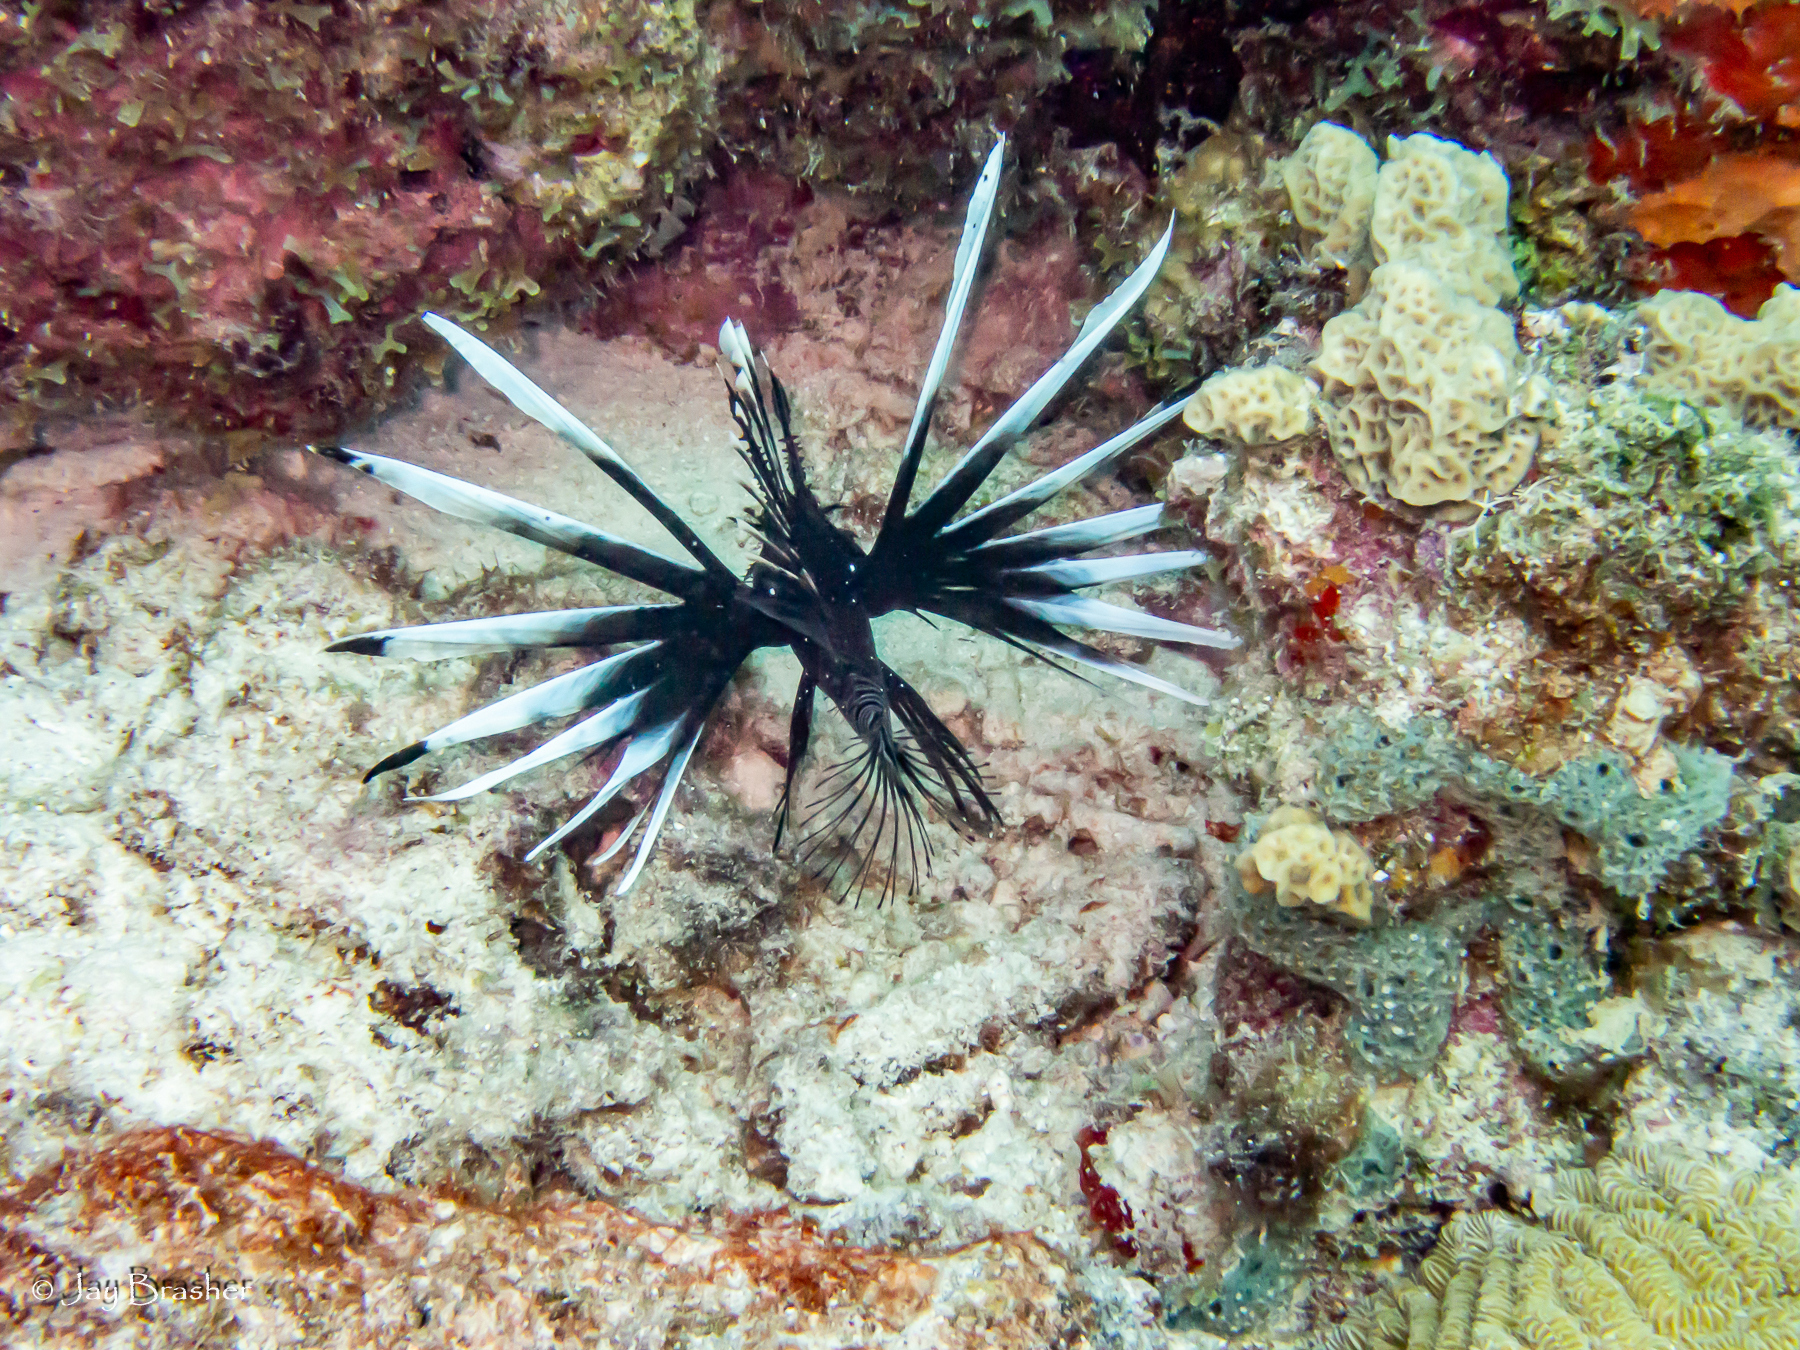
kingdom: Animalia
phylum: Chordata
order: Scorpaeniformes
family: Scorpaenidae
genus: Pterois
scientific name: Pterois volitans
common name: Lionfish
